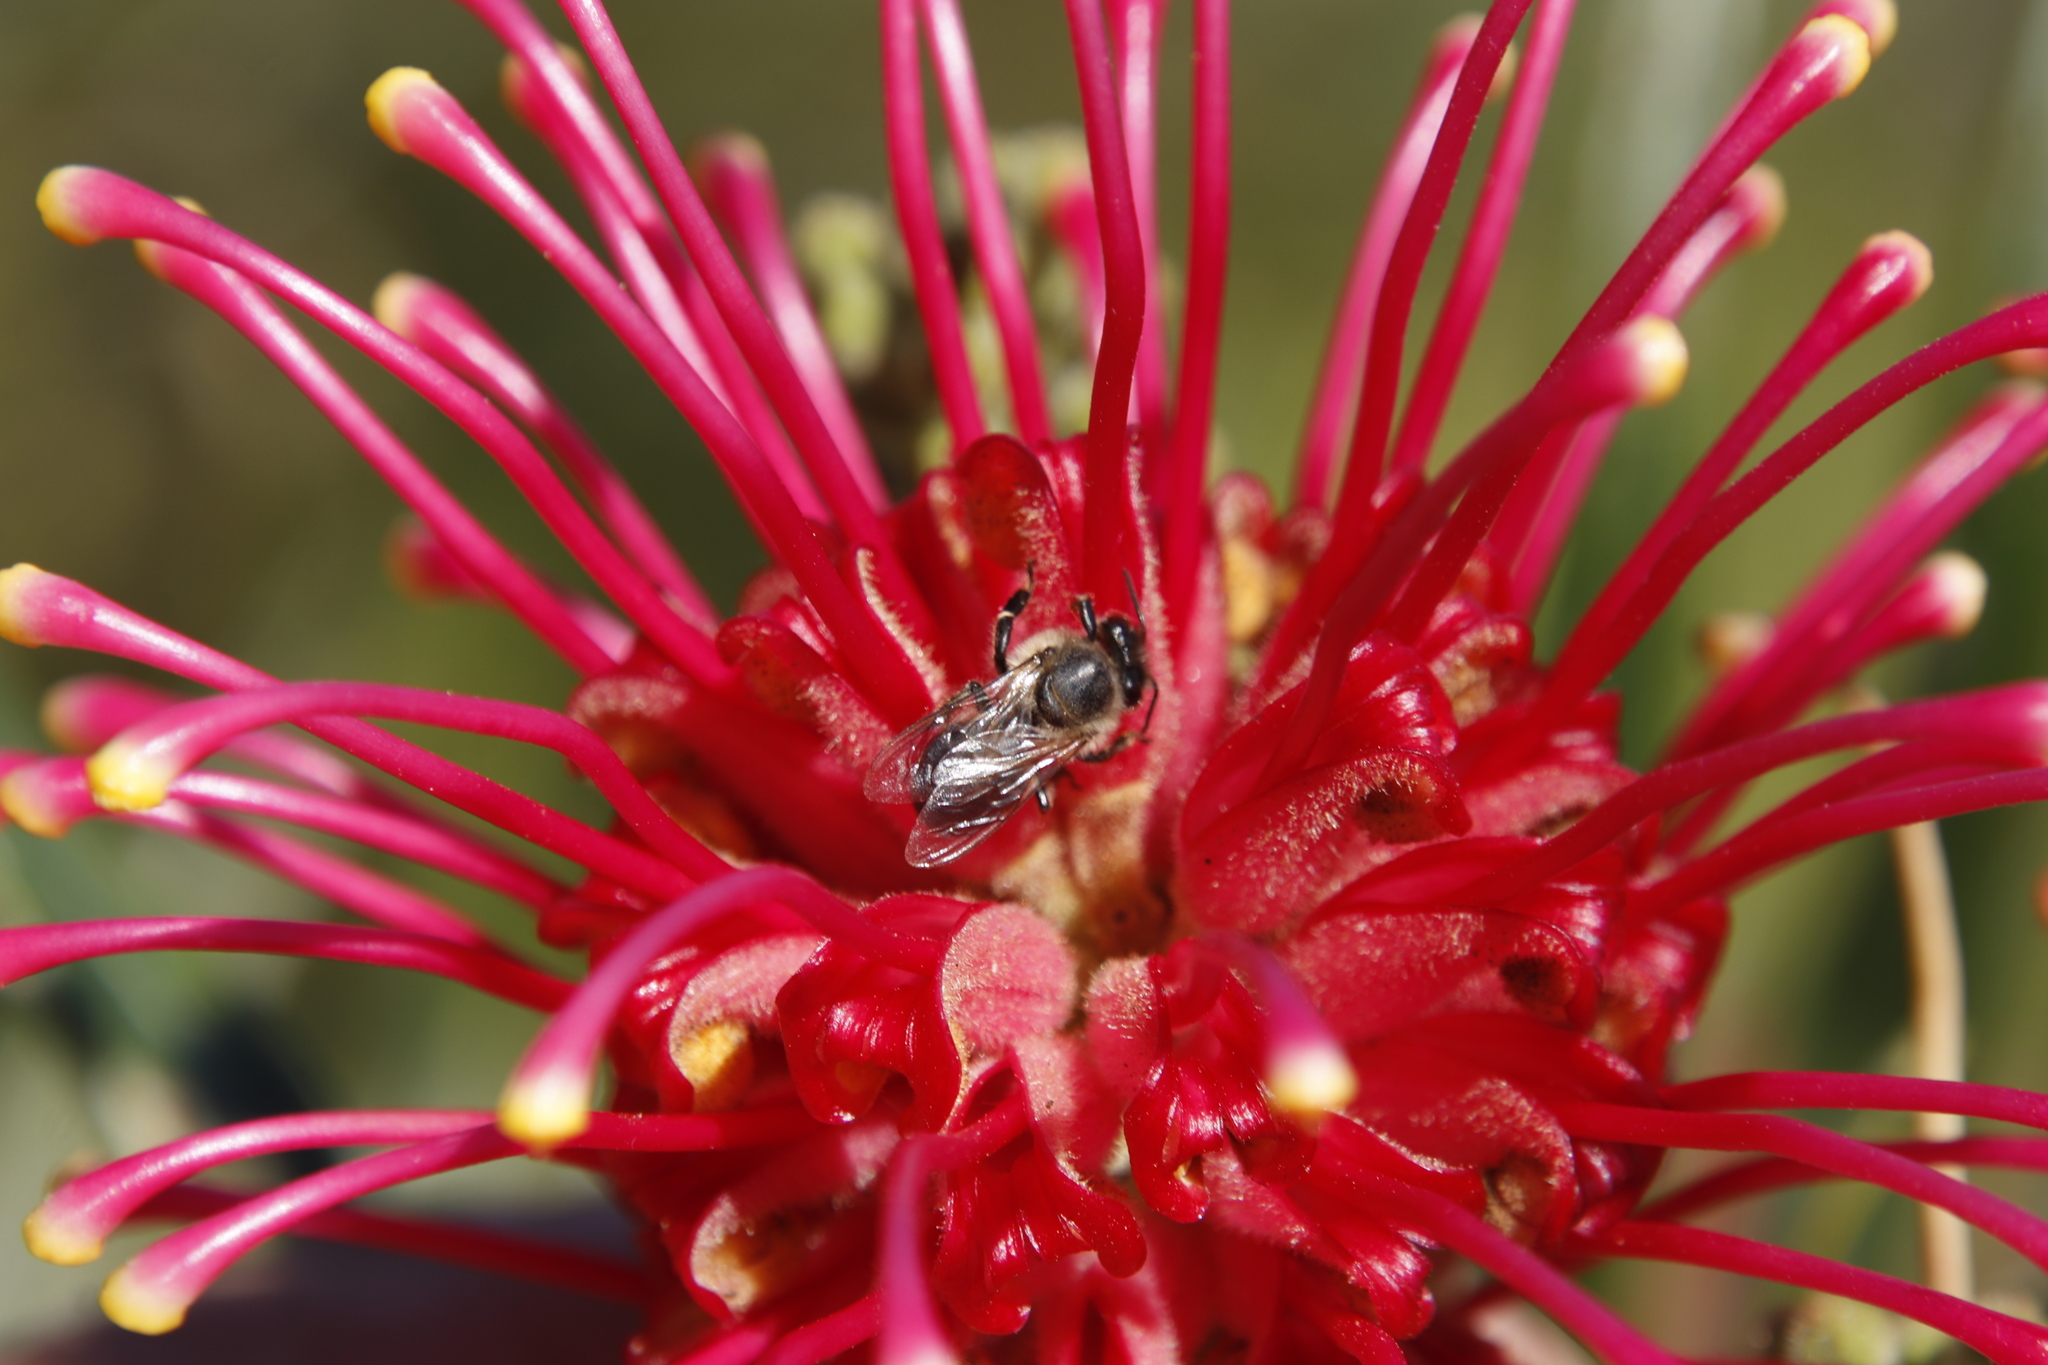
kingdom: Animalia
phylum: Arthropoda
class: Insecta
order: Hymenoptera
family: Apidae
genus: Apis
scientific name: Apis mellifera
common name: Honey bee
